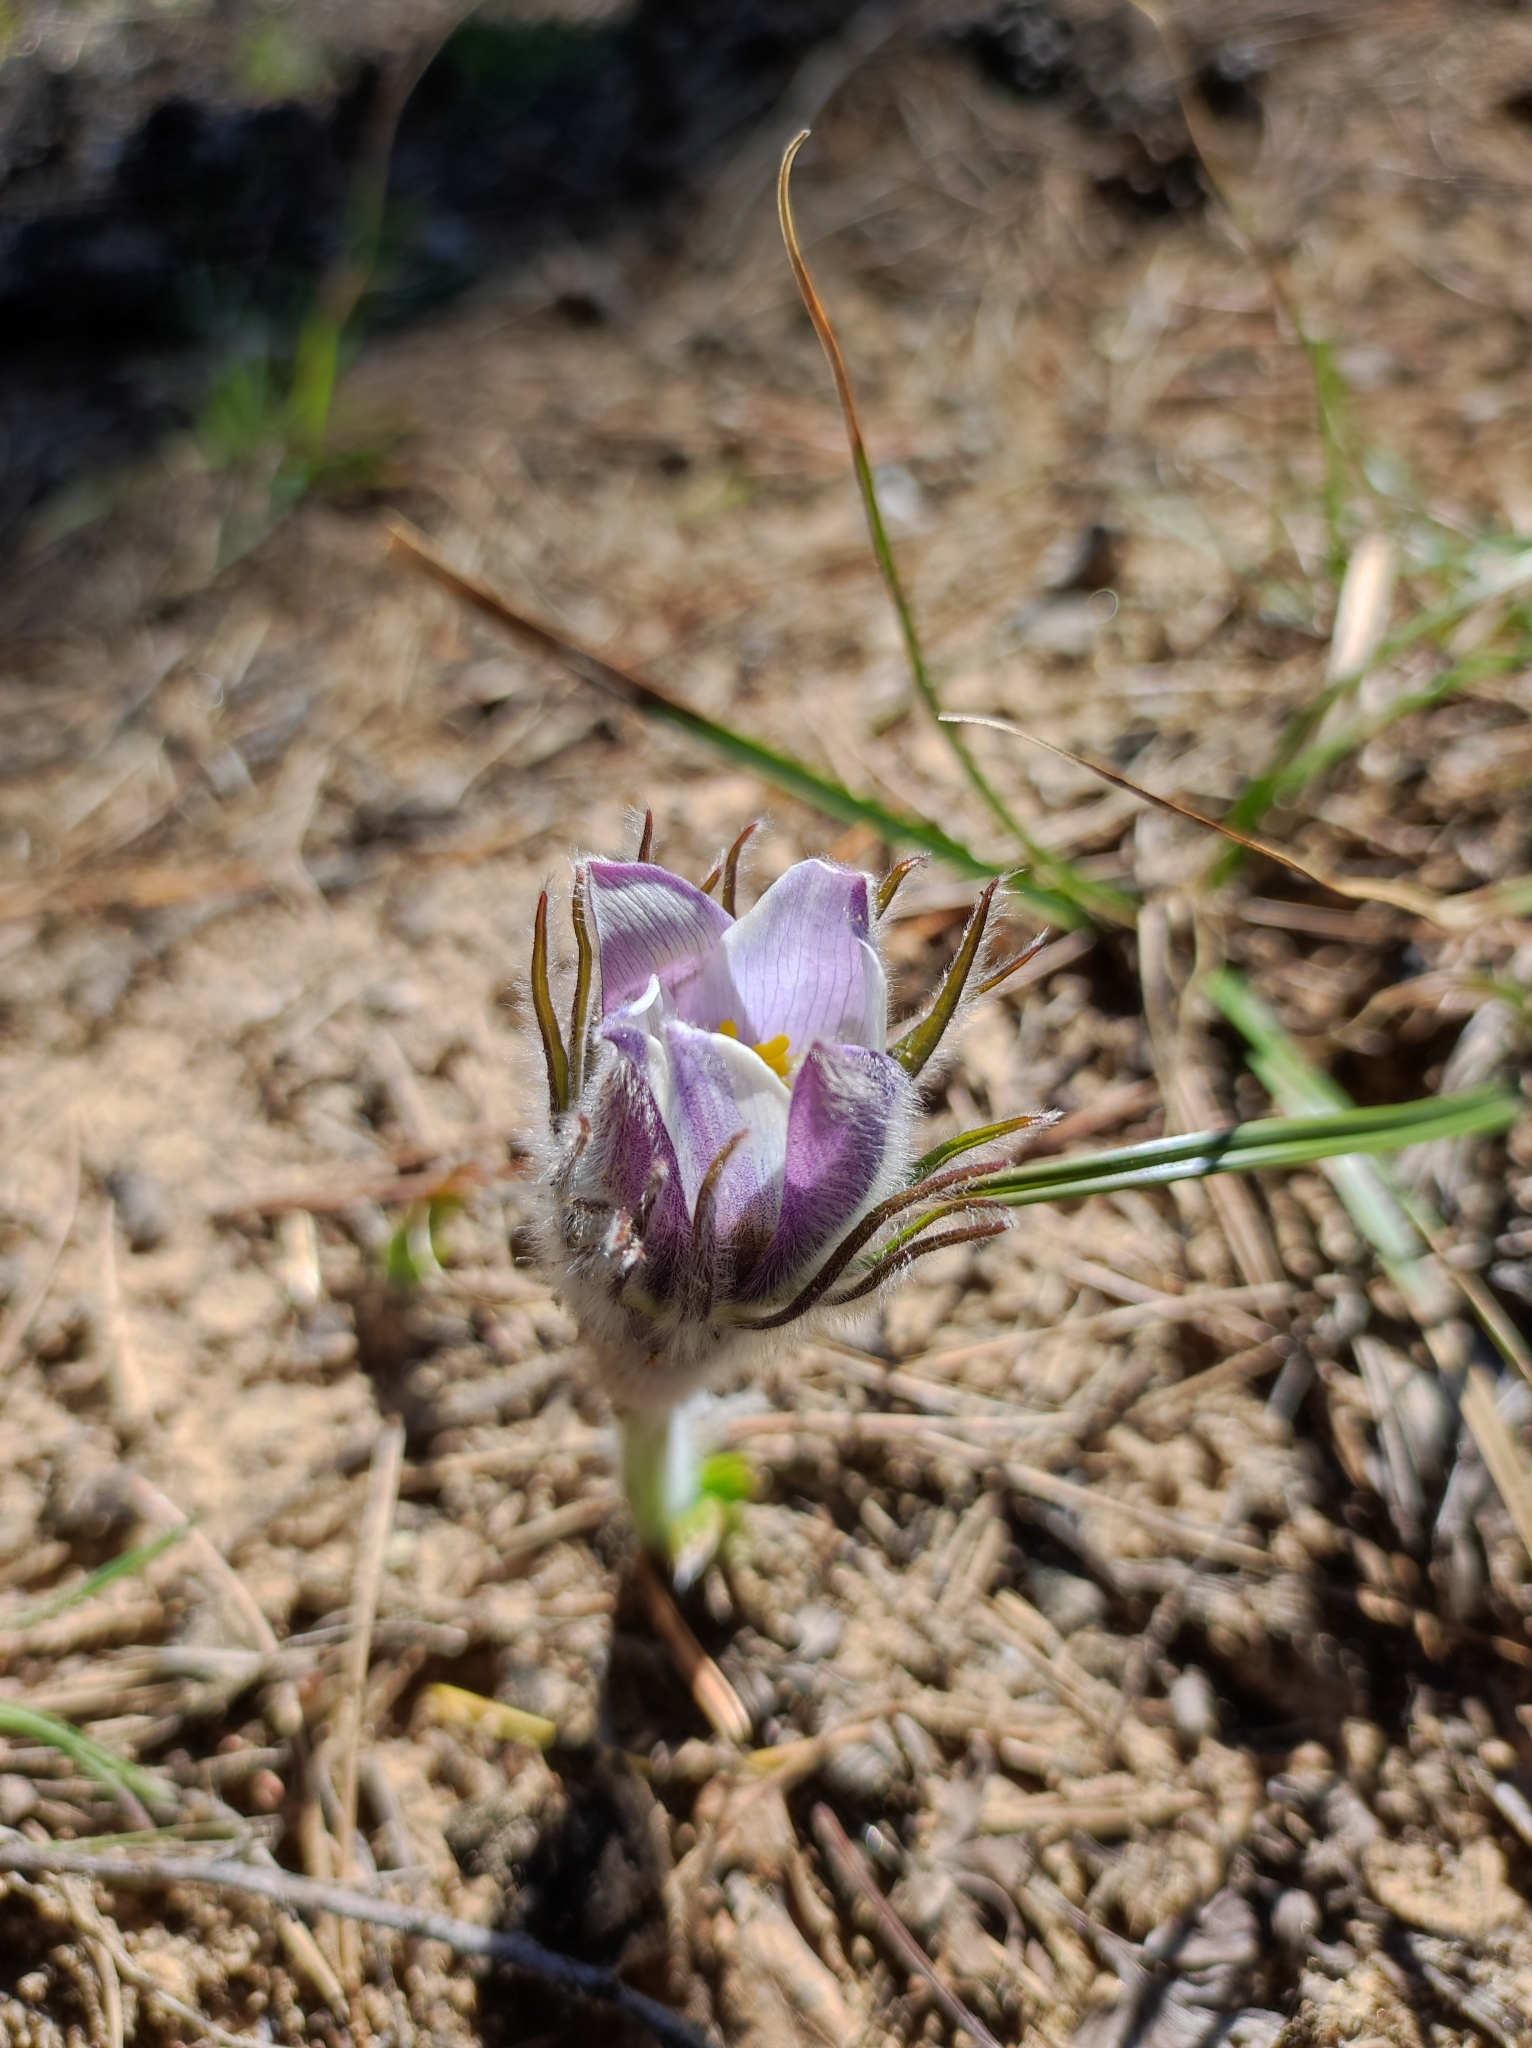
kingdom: Plantae
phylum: Tracheophyta
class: Magnoliopsida
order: Ranunculales
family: Ranunculaceae
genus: Pulsatilla
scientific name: Pulsatilla patens
